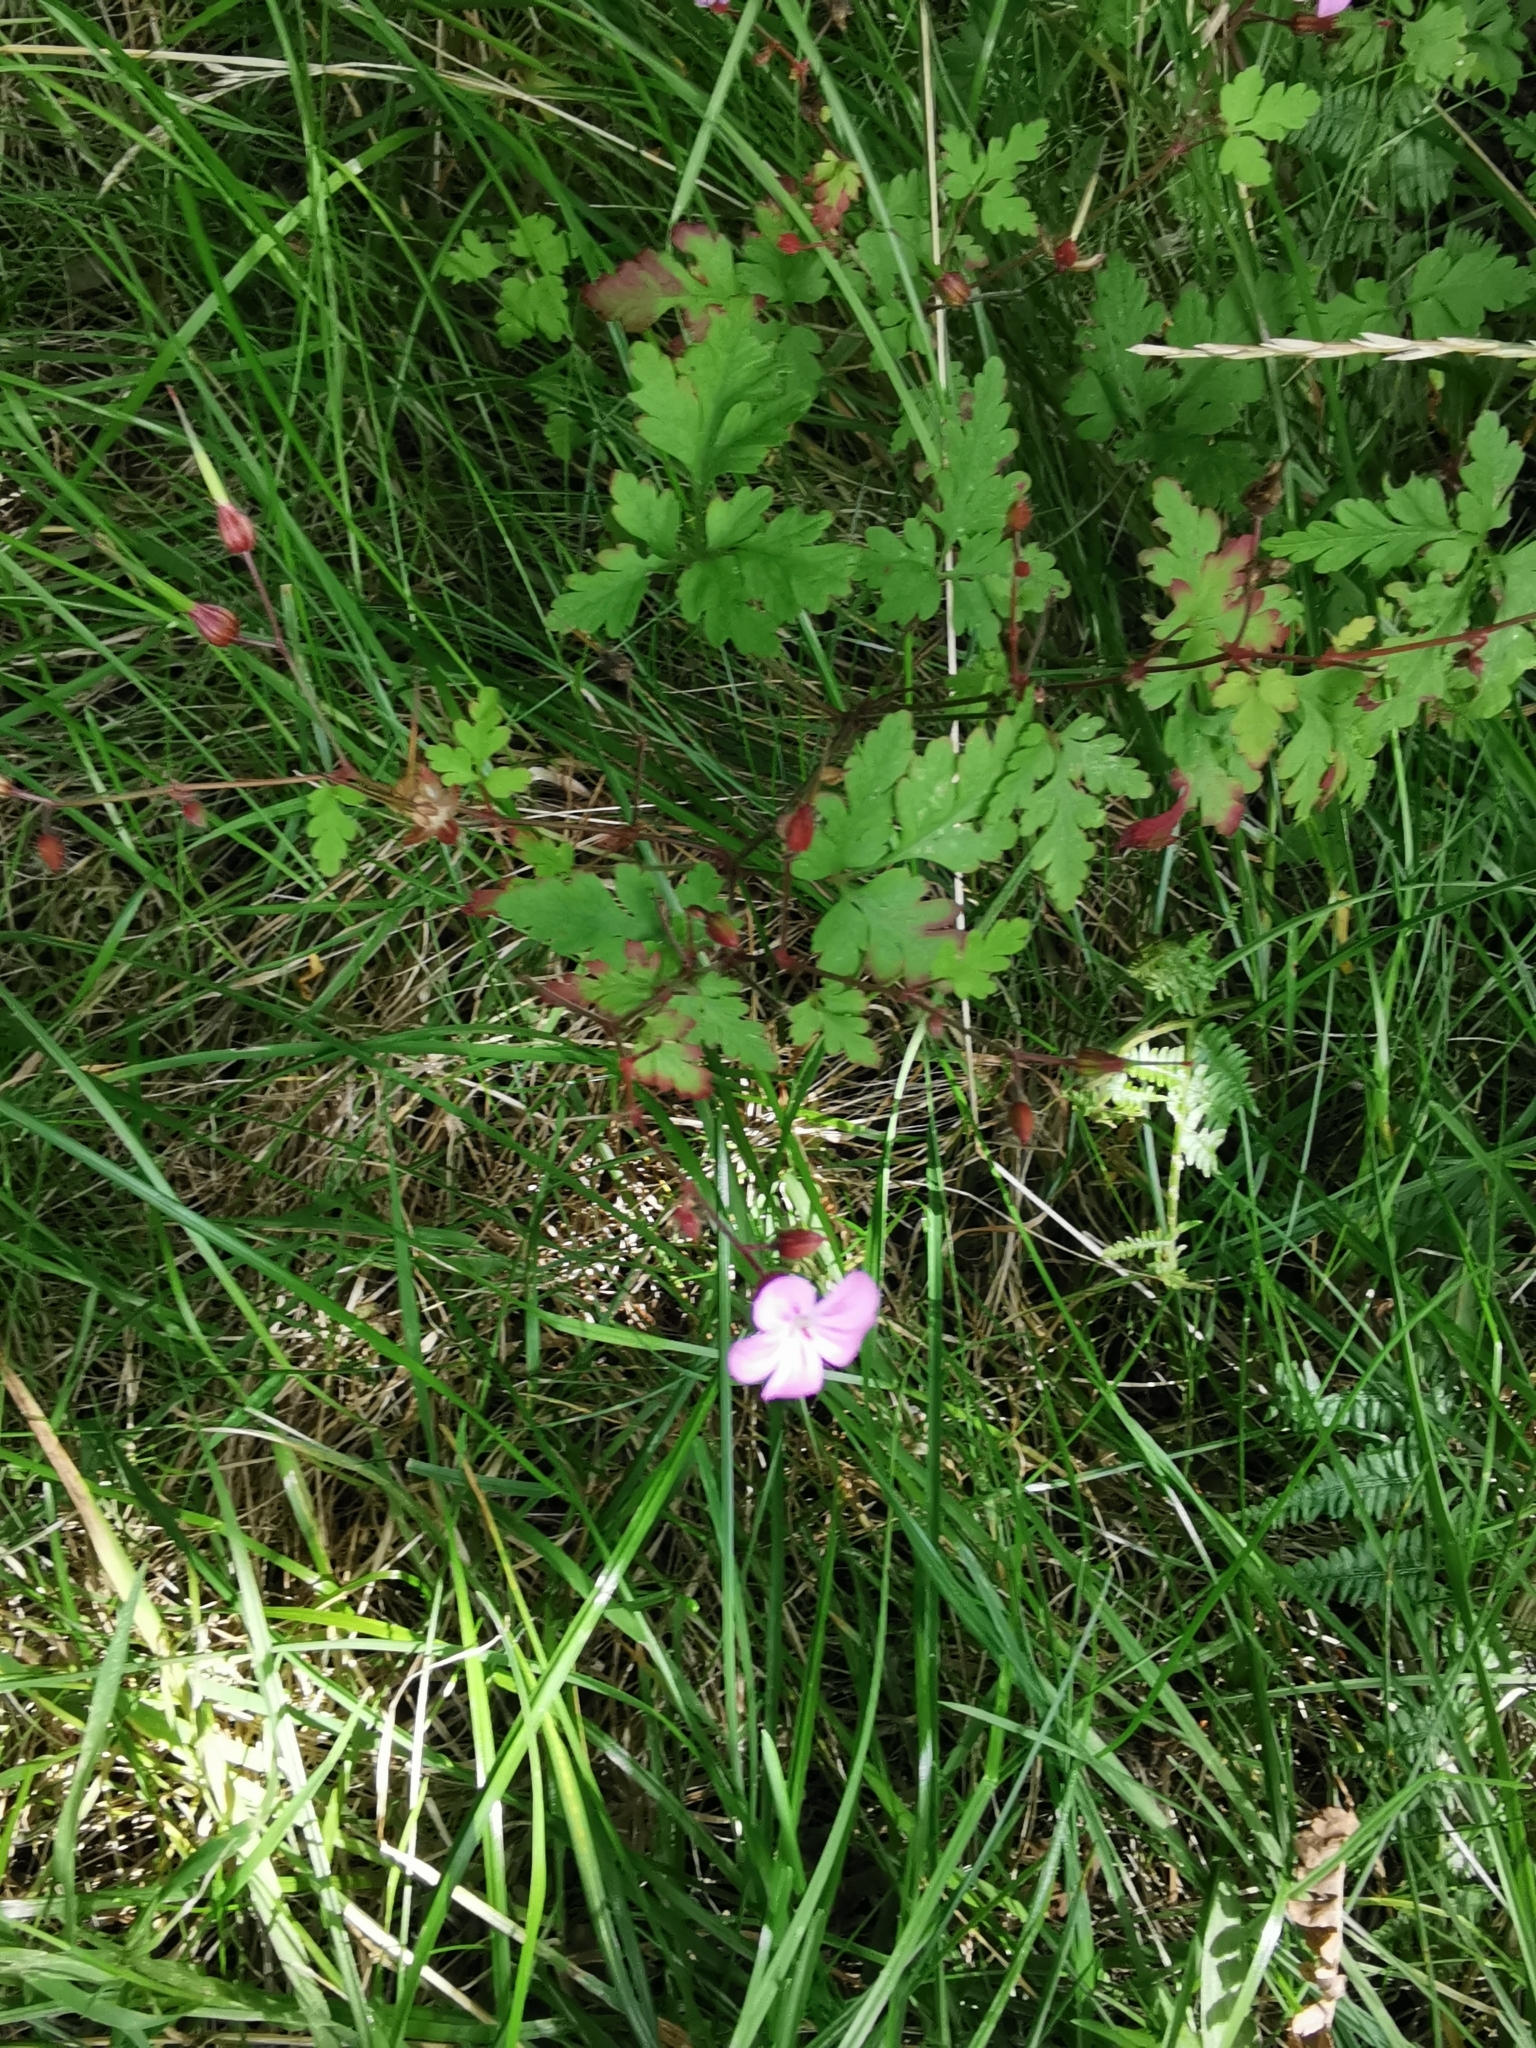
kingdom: Plantae
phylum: Tracheophyta
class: Magnoliopsida
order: Geraniales
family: Geraniaceae
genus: Geranium
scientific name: Geranium robertianum
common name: Herb-robert
